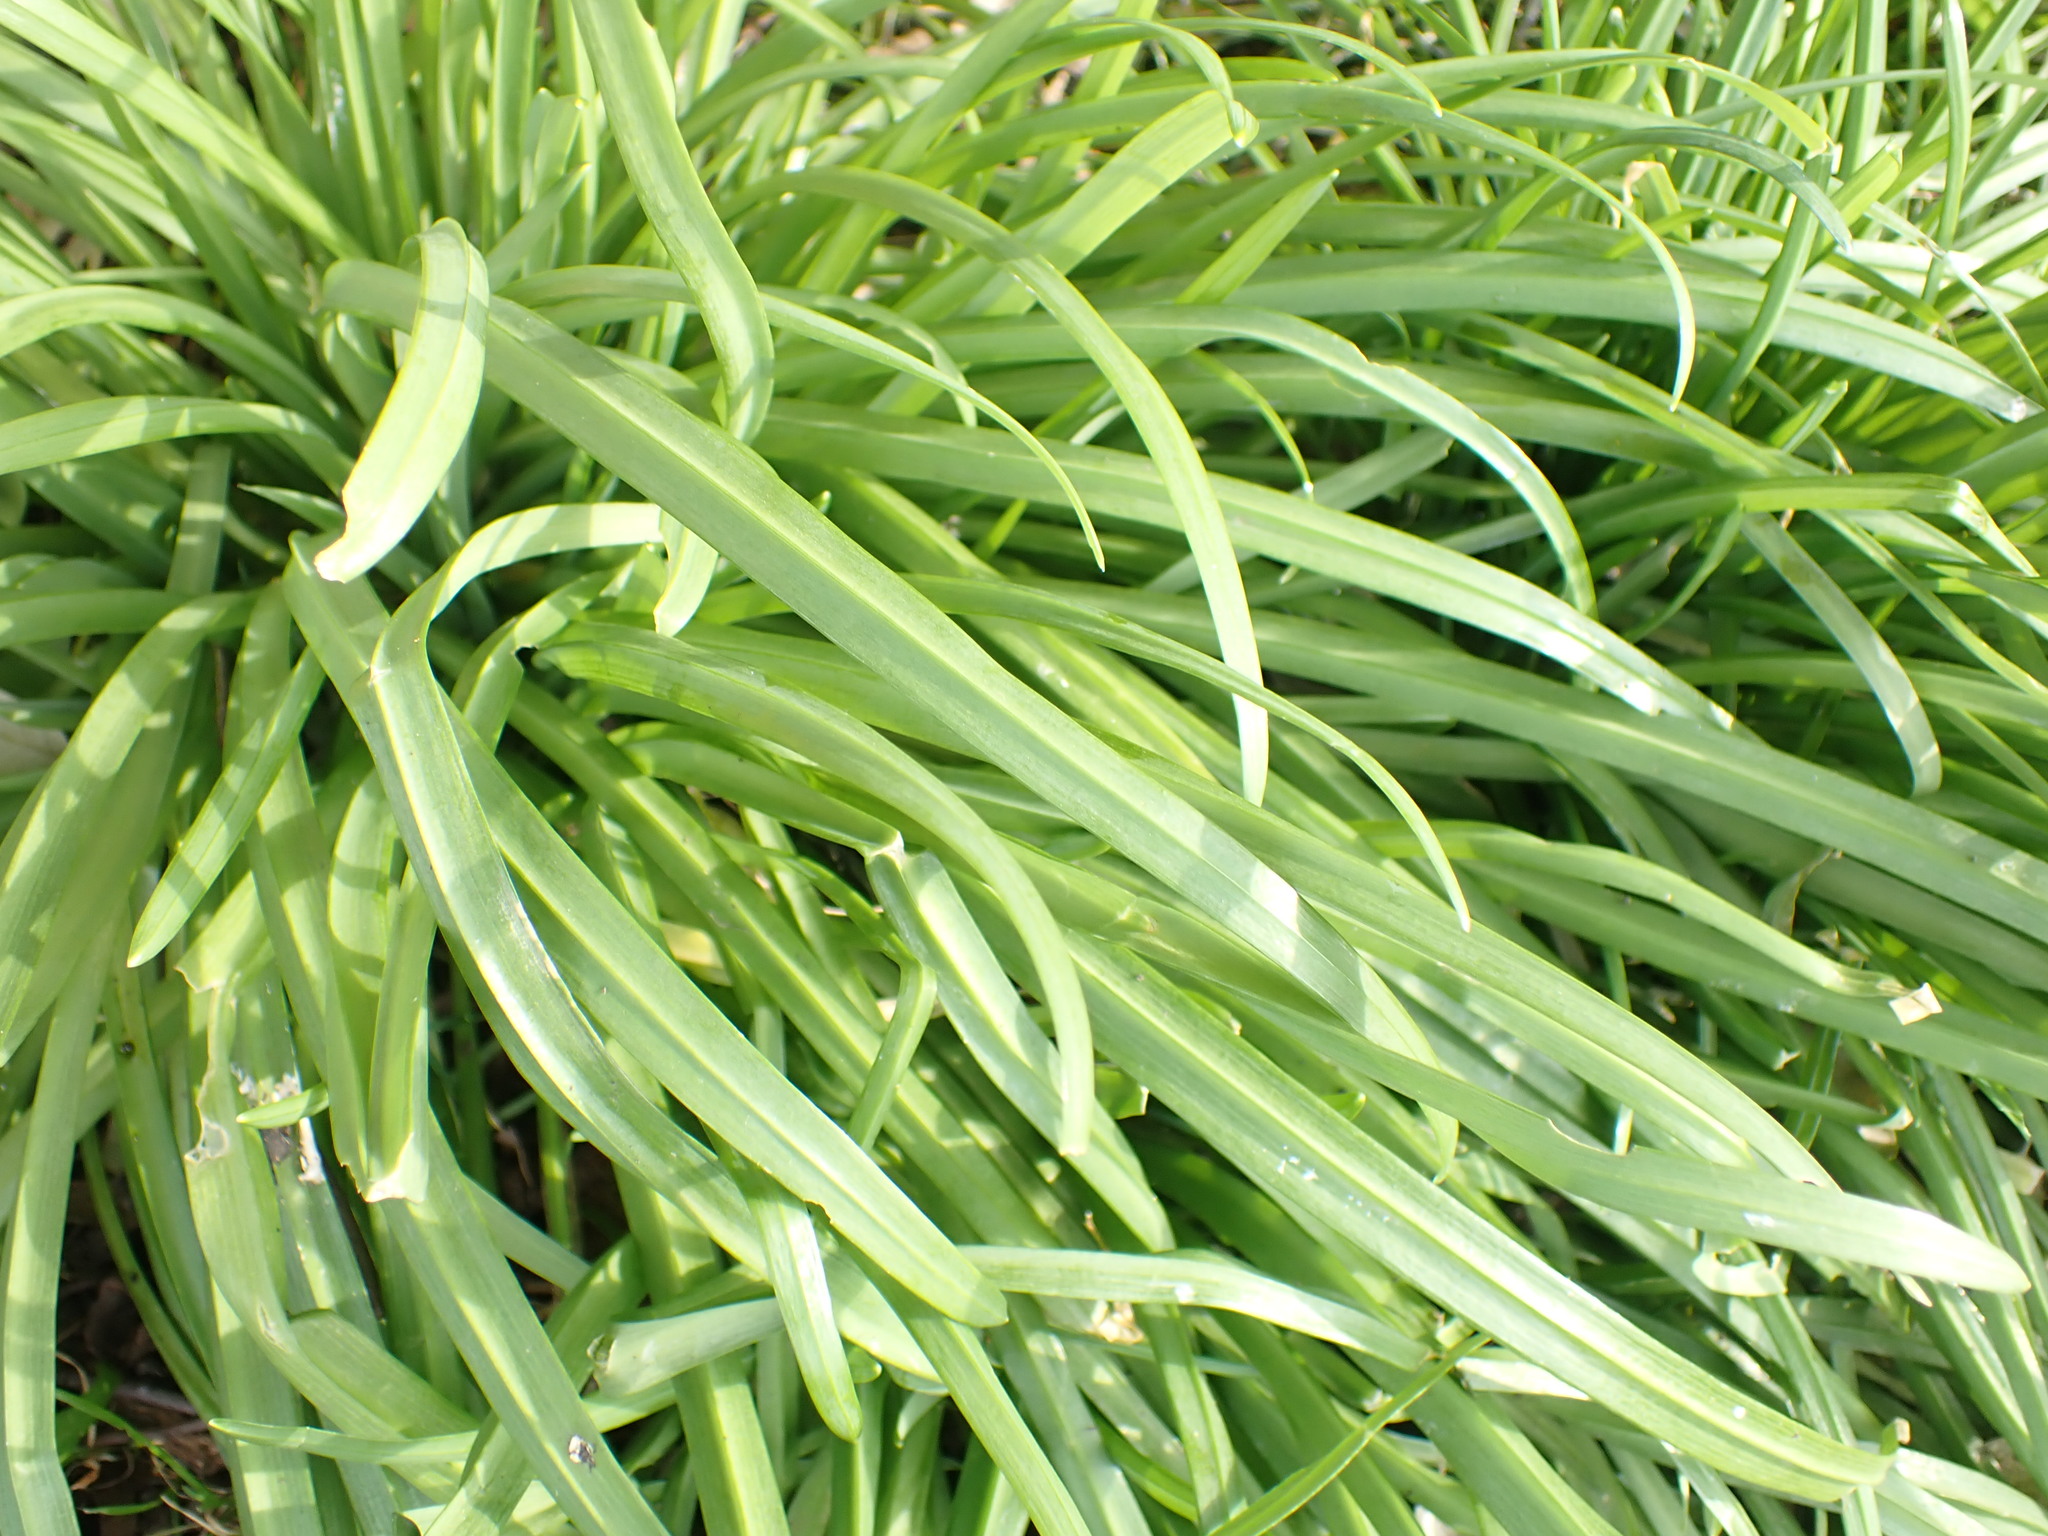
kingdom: Plantae
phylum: Tracheophyta
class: Liliopsida
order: Asparagales
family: Amaryllidaceae
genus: Allium
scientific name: Allium triquetrum
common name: Three-cornered garlic
